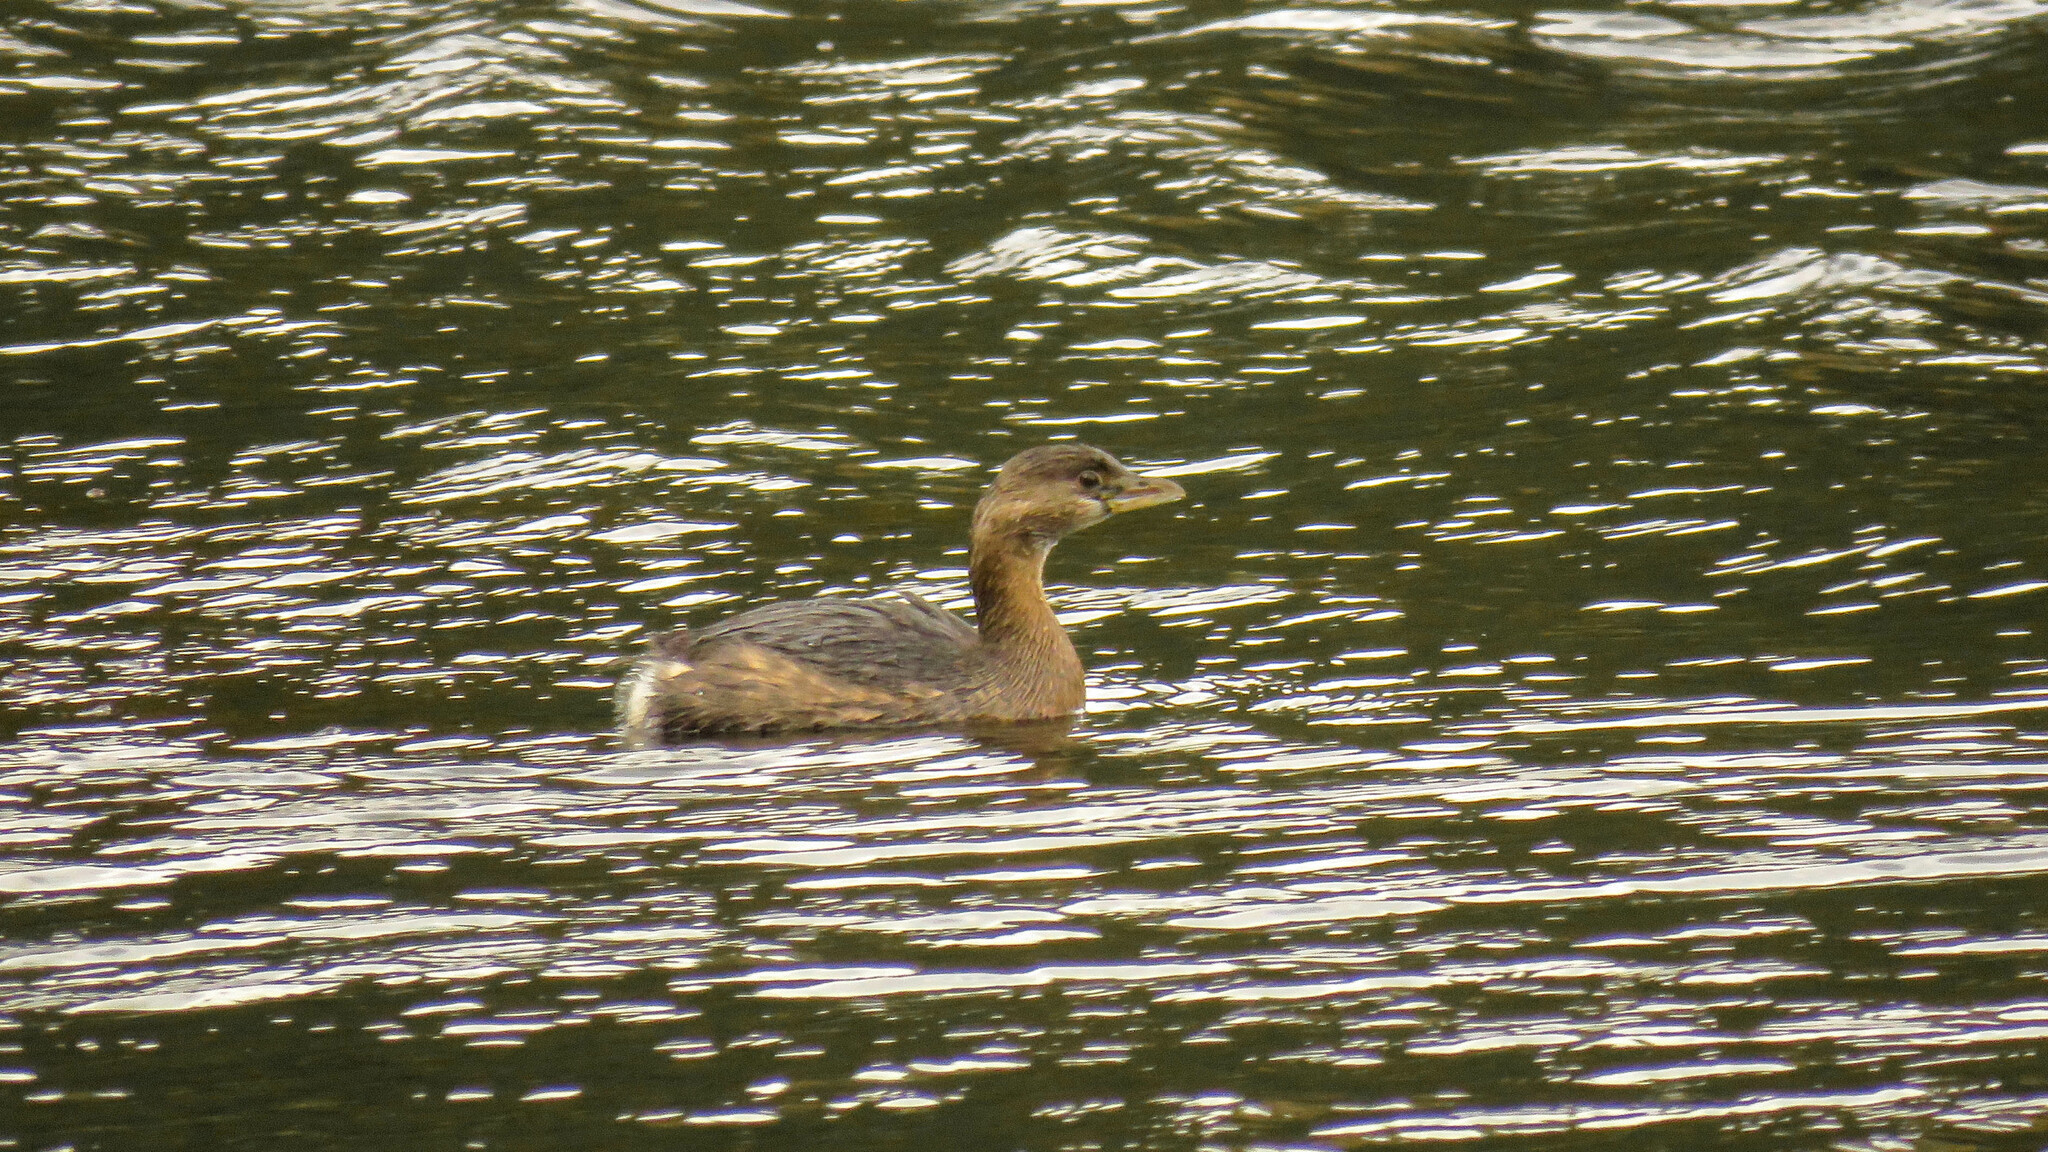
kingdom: Animalia
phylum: Chordata
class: Aves
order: Podicipediformes
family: Podicipedidae
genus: Podilymbus
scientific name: Podilymbus podiceps
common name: Pied-billed grebe
